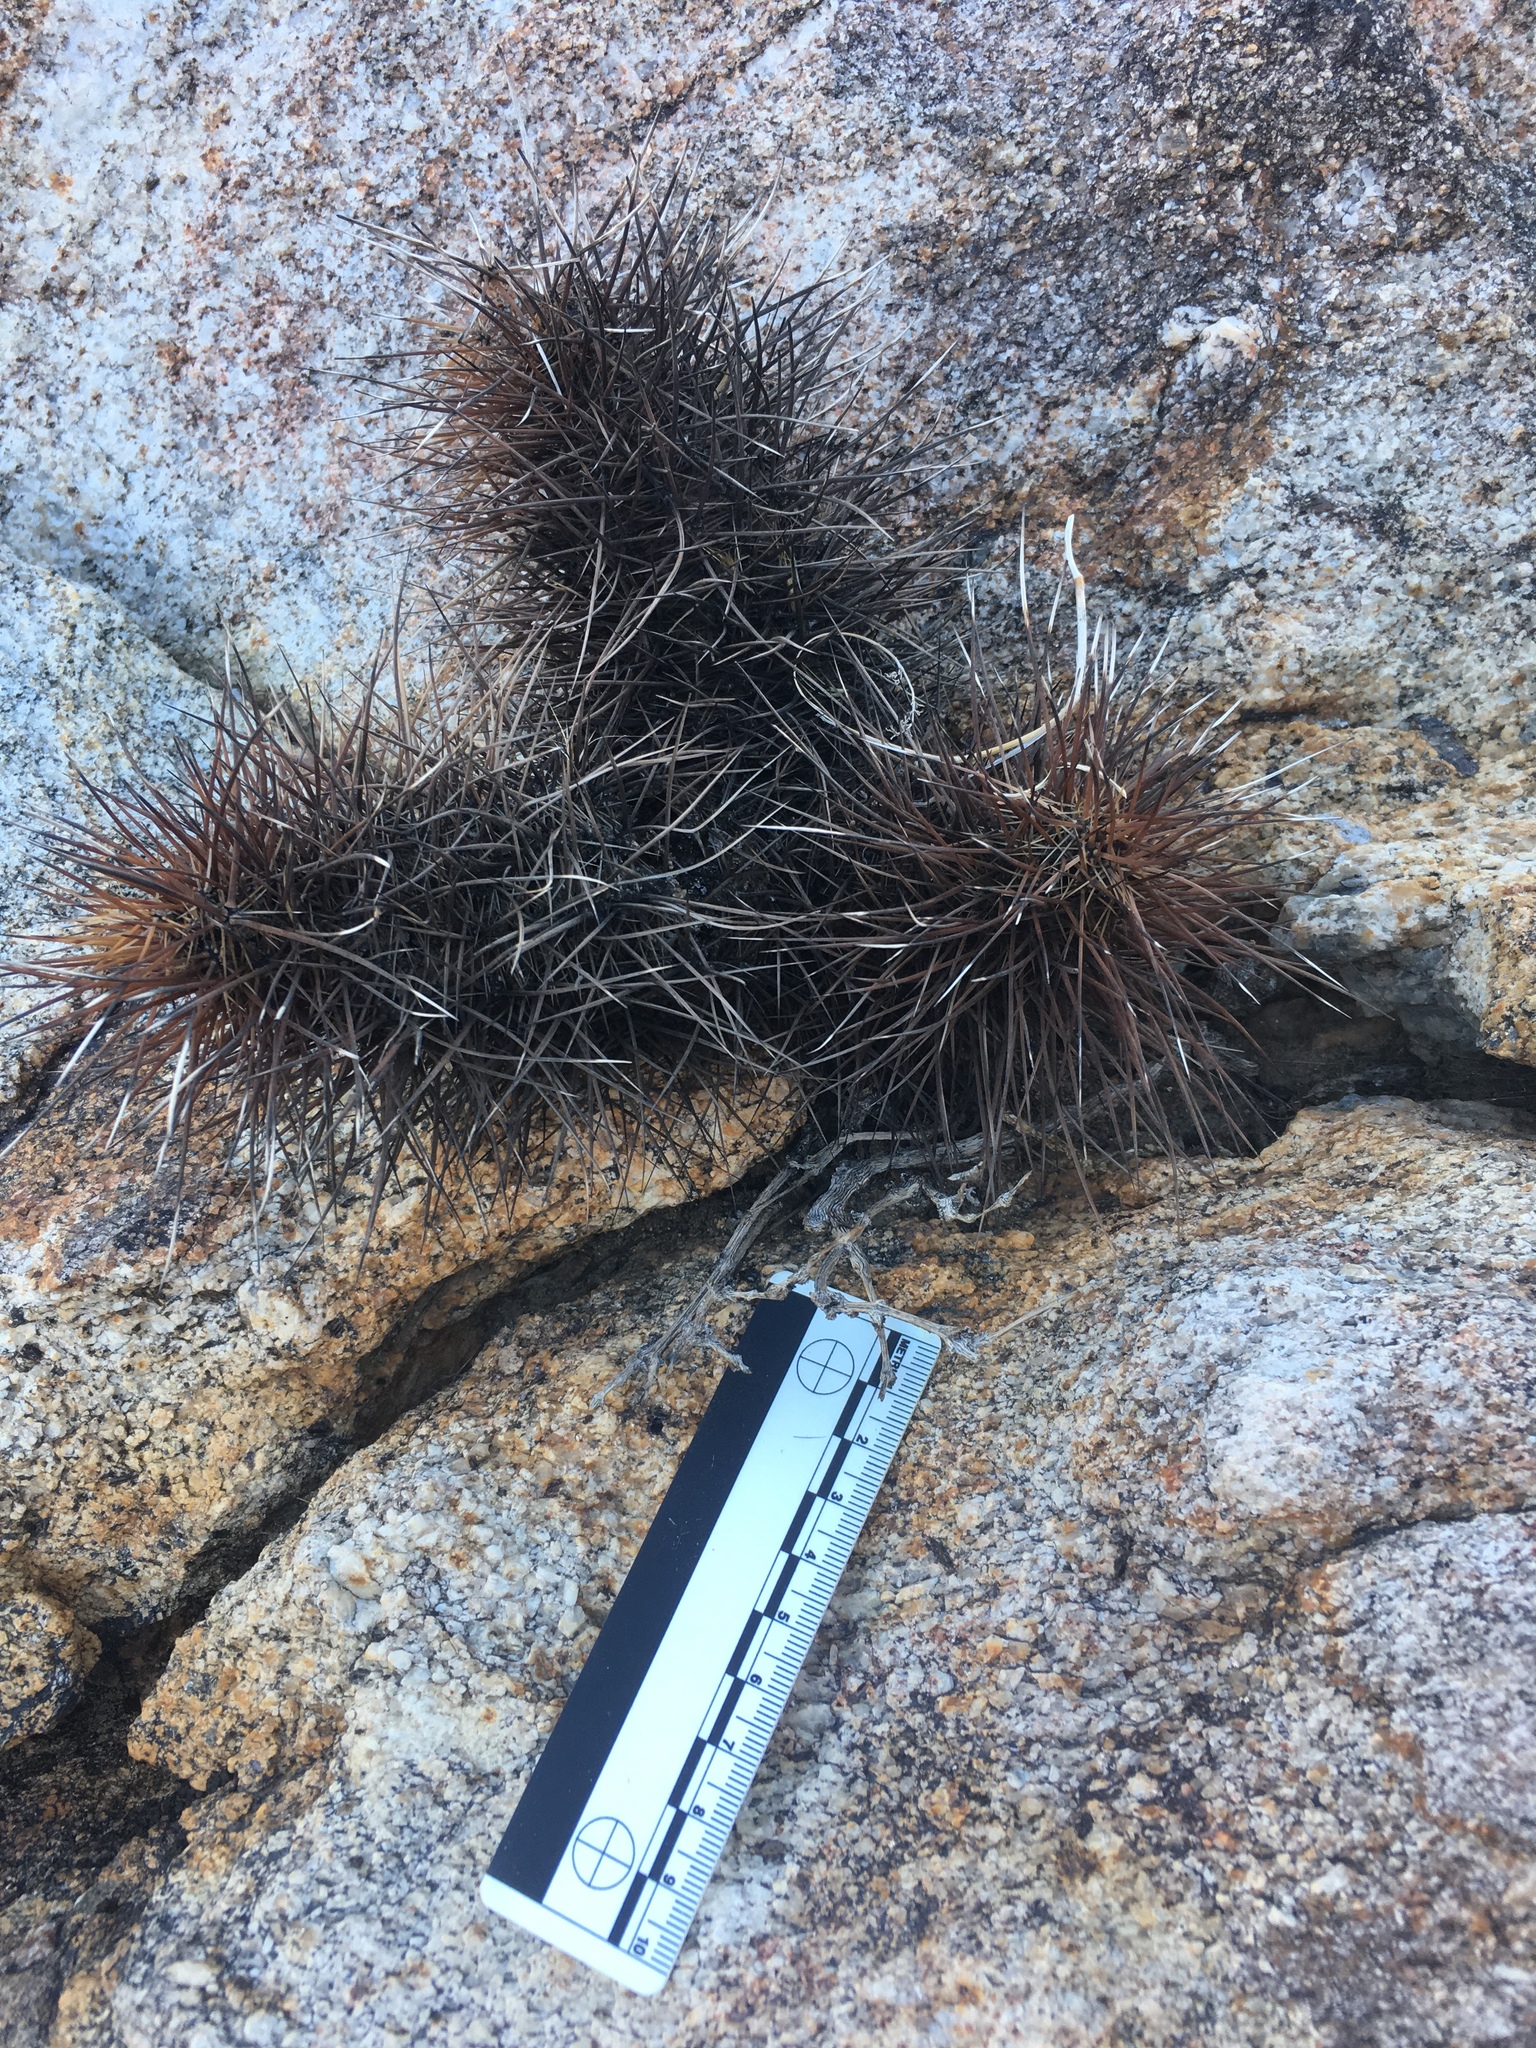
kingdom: Plantae
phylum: Tracheophyta
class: Magnoliopsida
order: Caryophyllales
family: Cactaceae
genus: Echinocereus
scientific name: Echinocereus engelmannii
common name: Engelmann's hedgehog cactus
